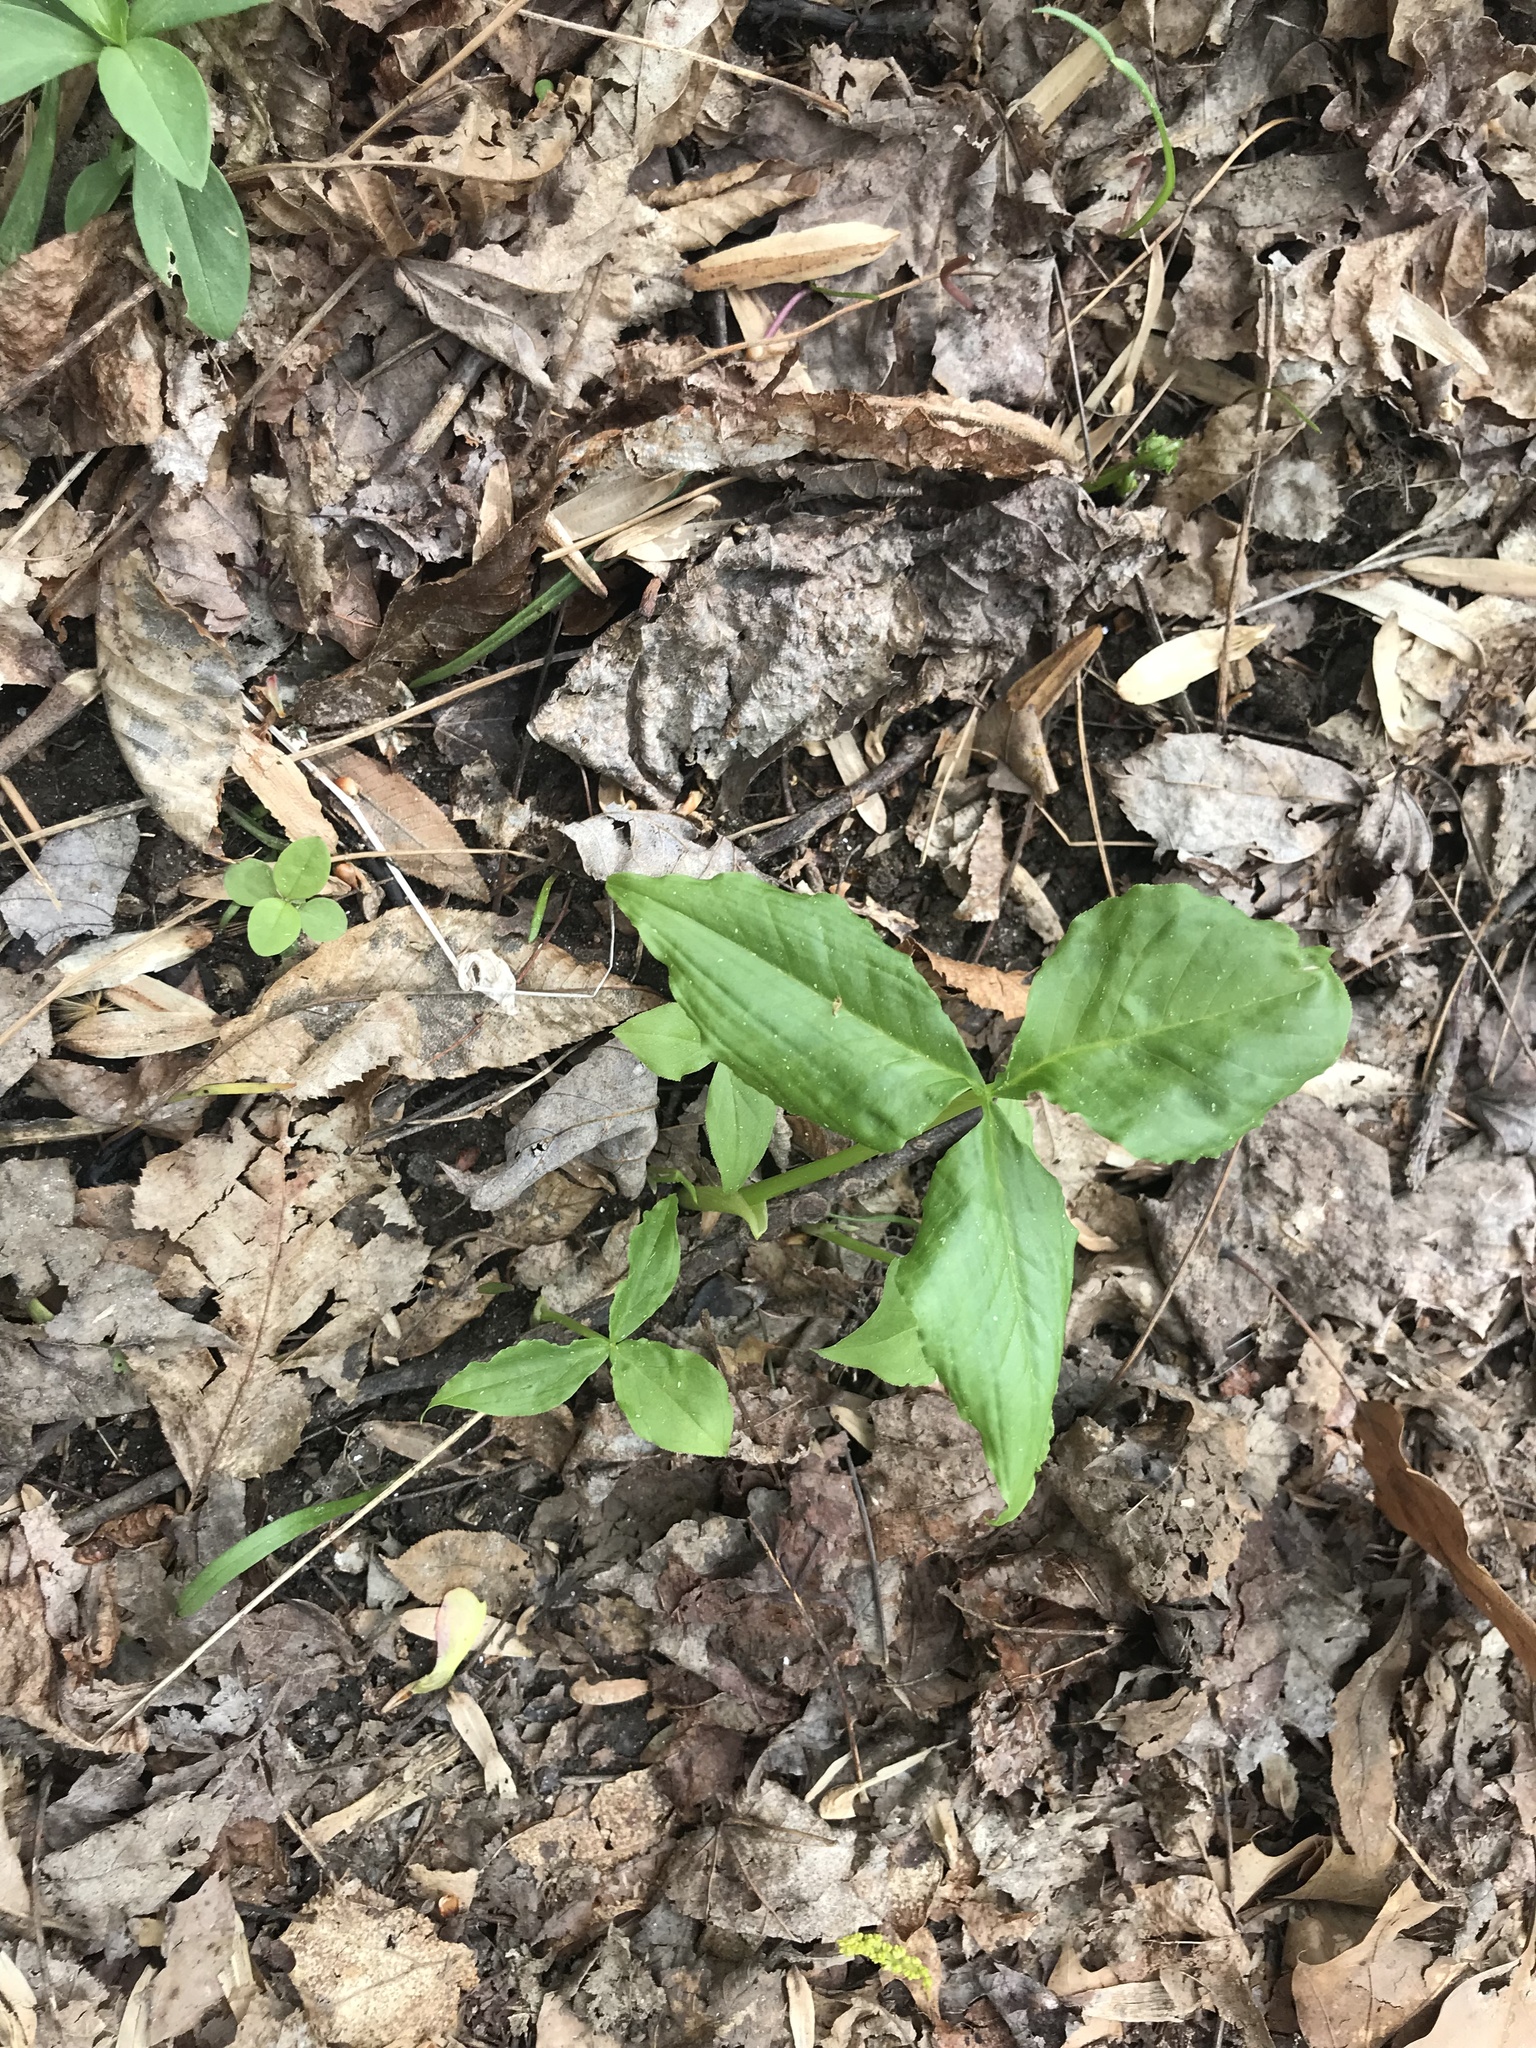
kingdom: Plantae
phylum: Tracheophyta
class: Liliopsida
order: Alismatales
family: Araceae
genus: Arisaema
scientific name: Arisaema triphyllum
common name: Jack-in-the-pulpit
